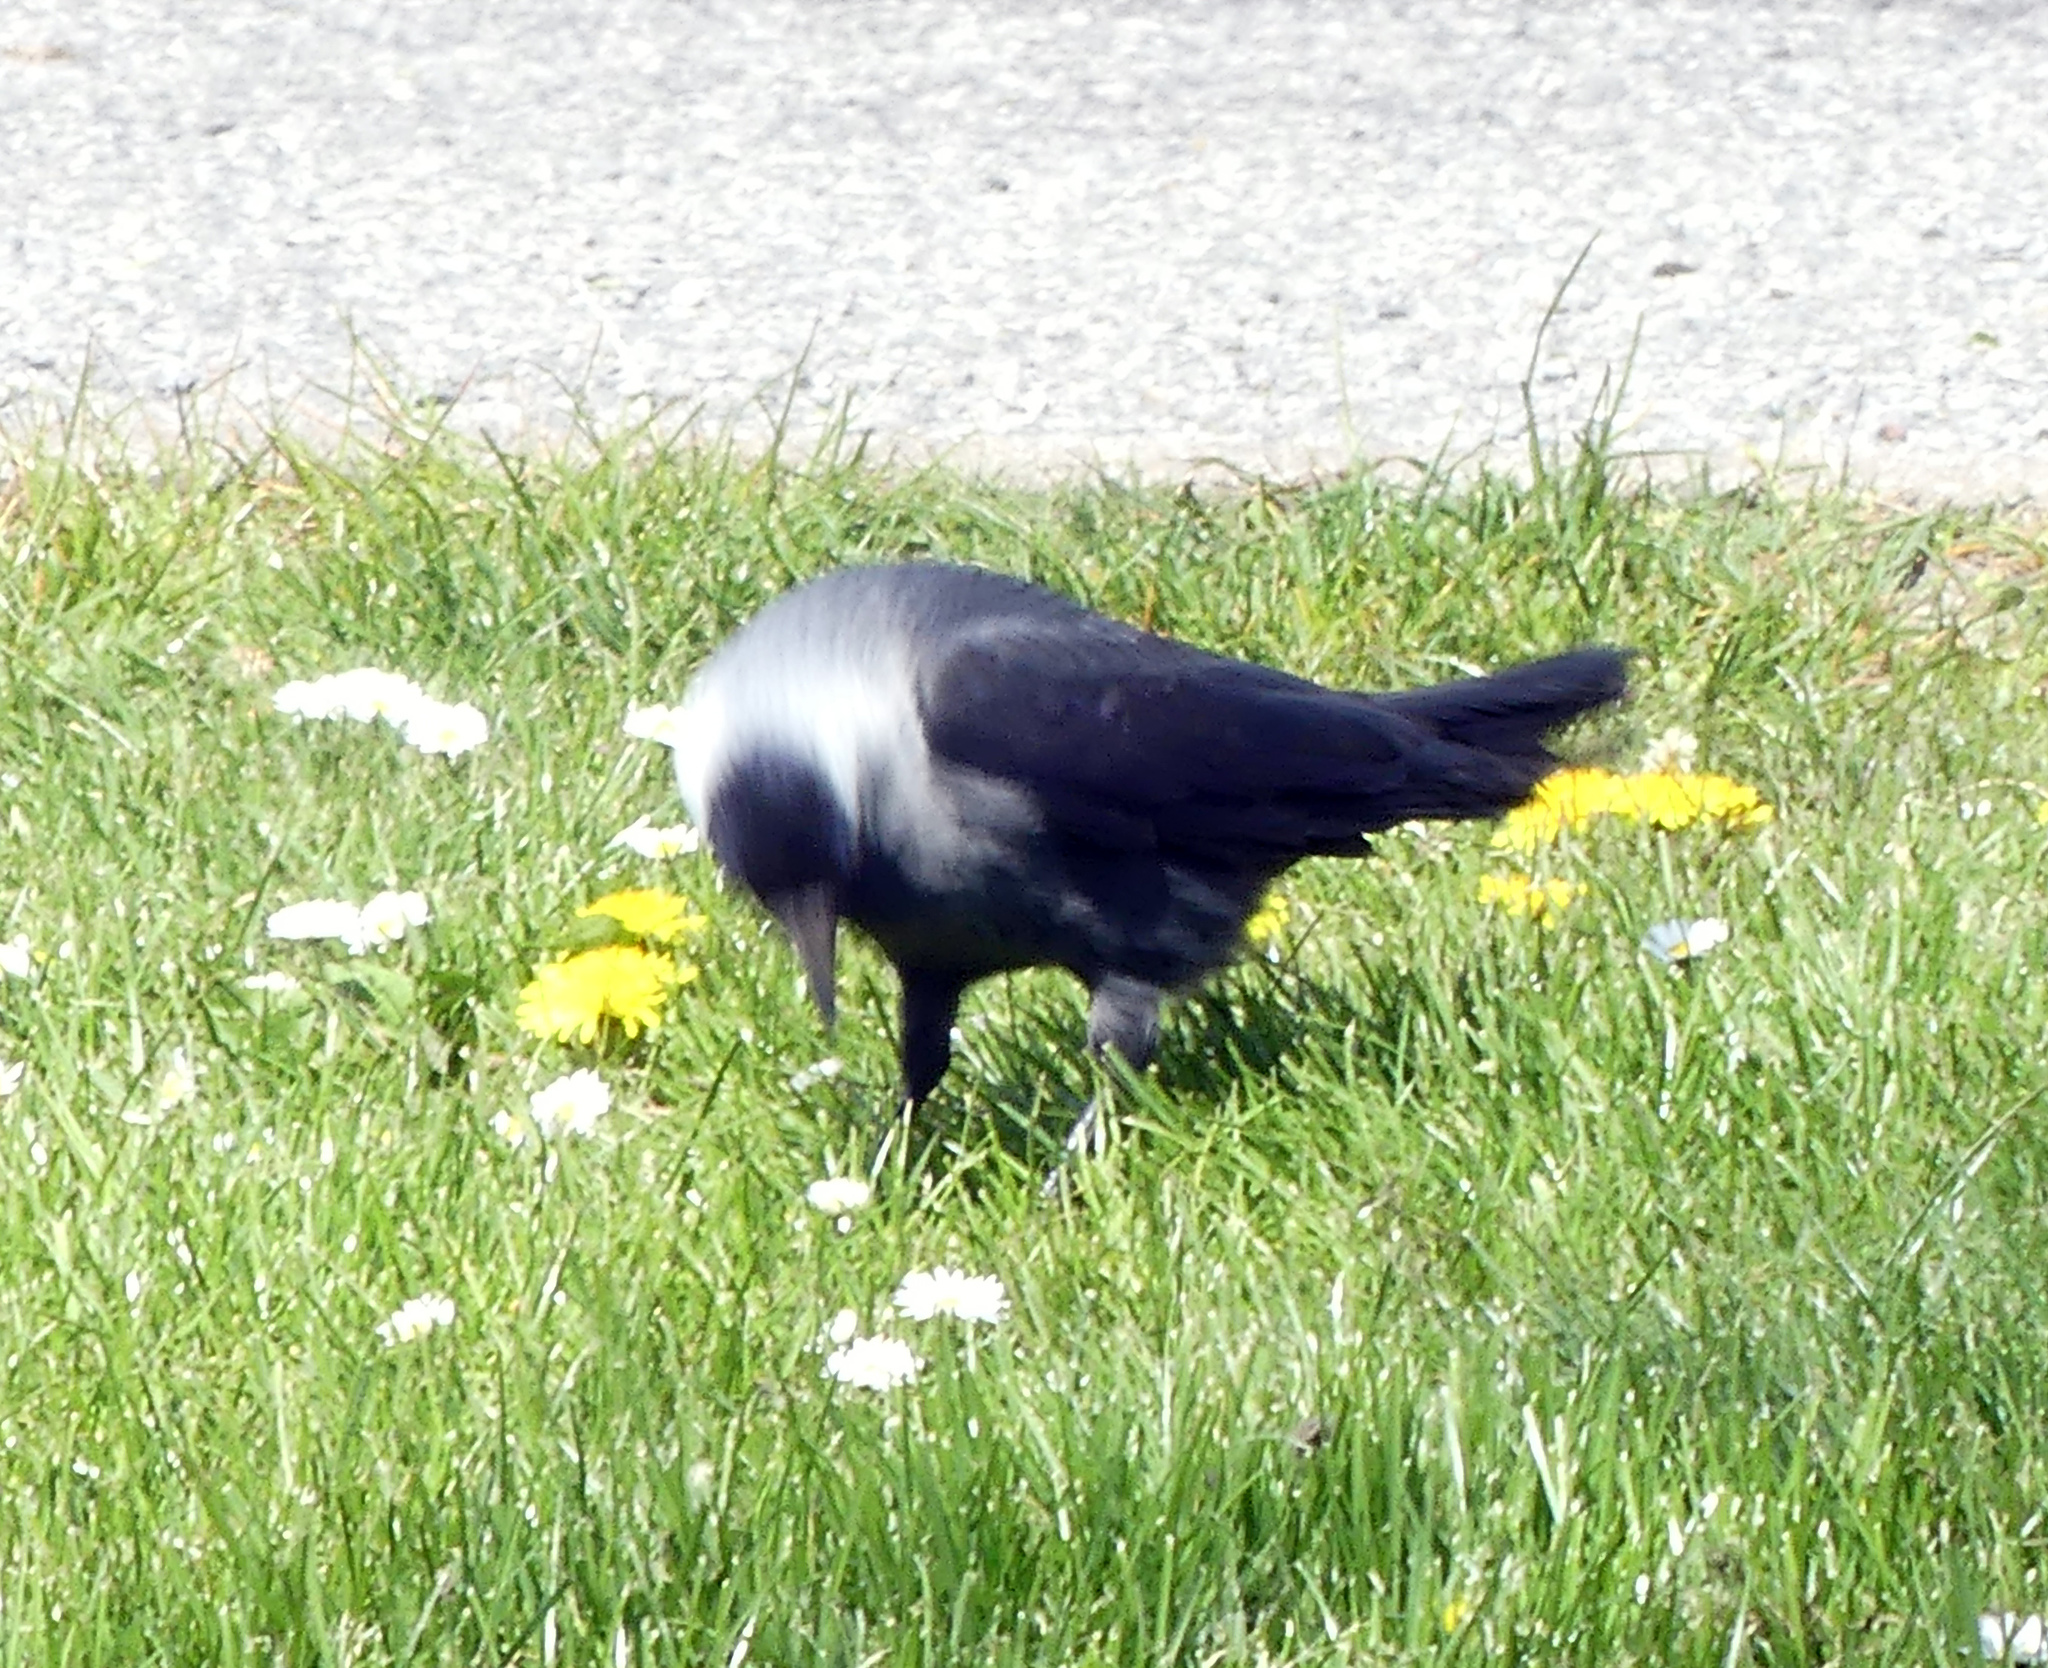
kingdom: Animalia
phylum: Chordata
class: Aves
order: Passeriformes
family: Corvidae
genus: Coloeus
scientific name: Coloeus monedula
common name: Western jackdaw
